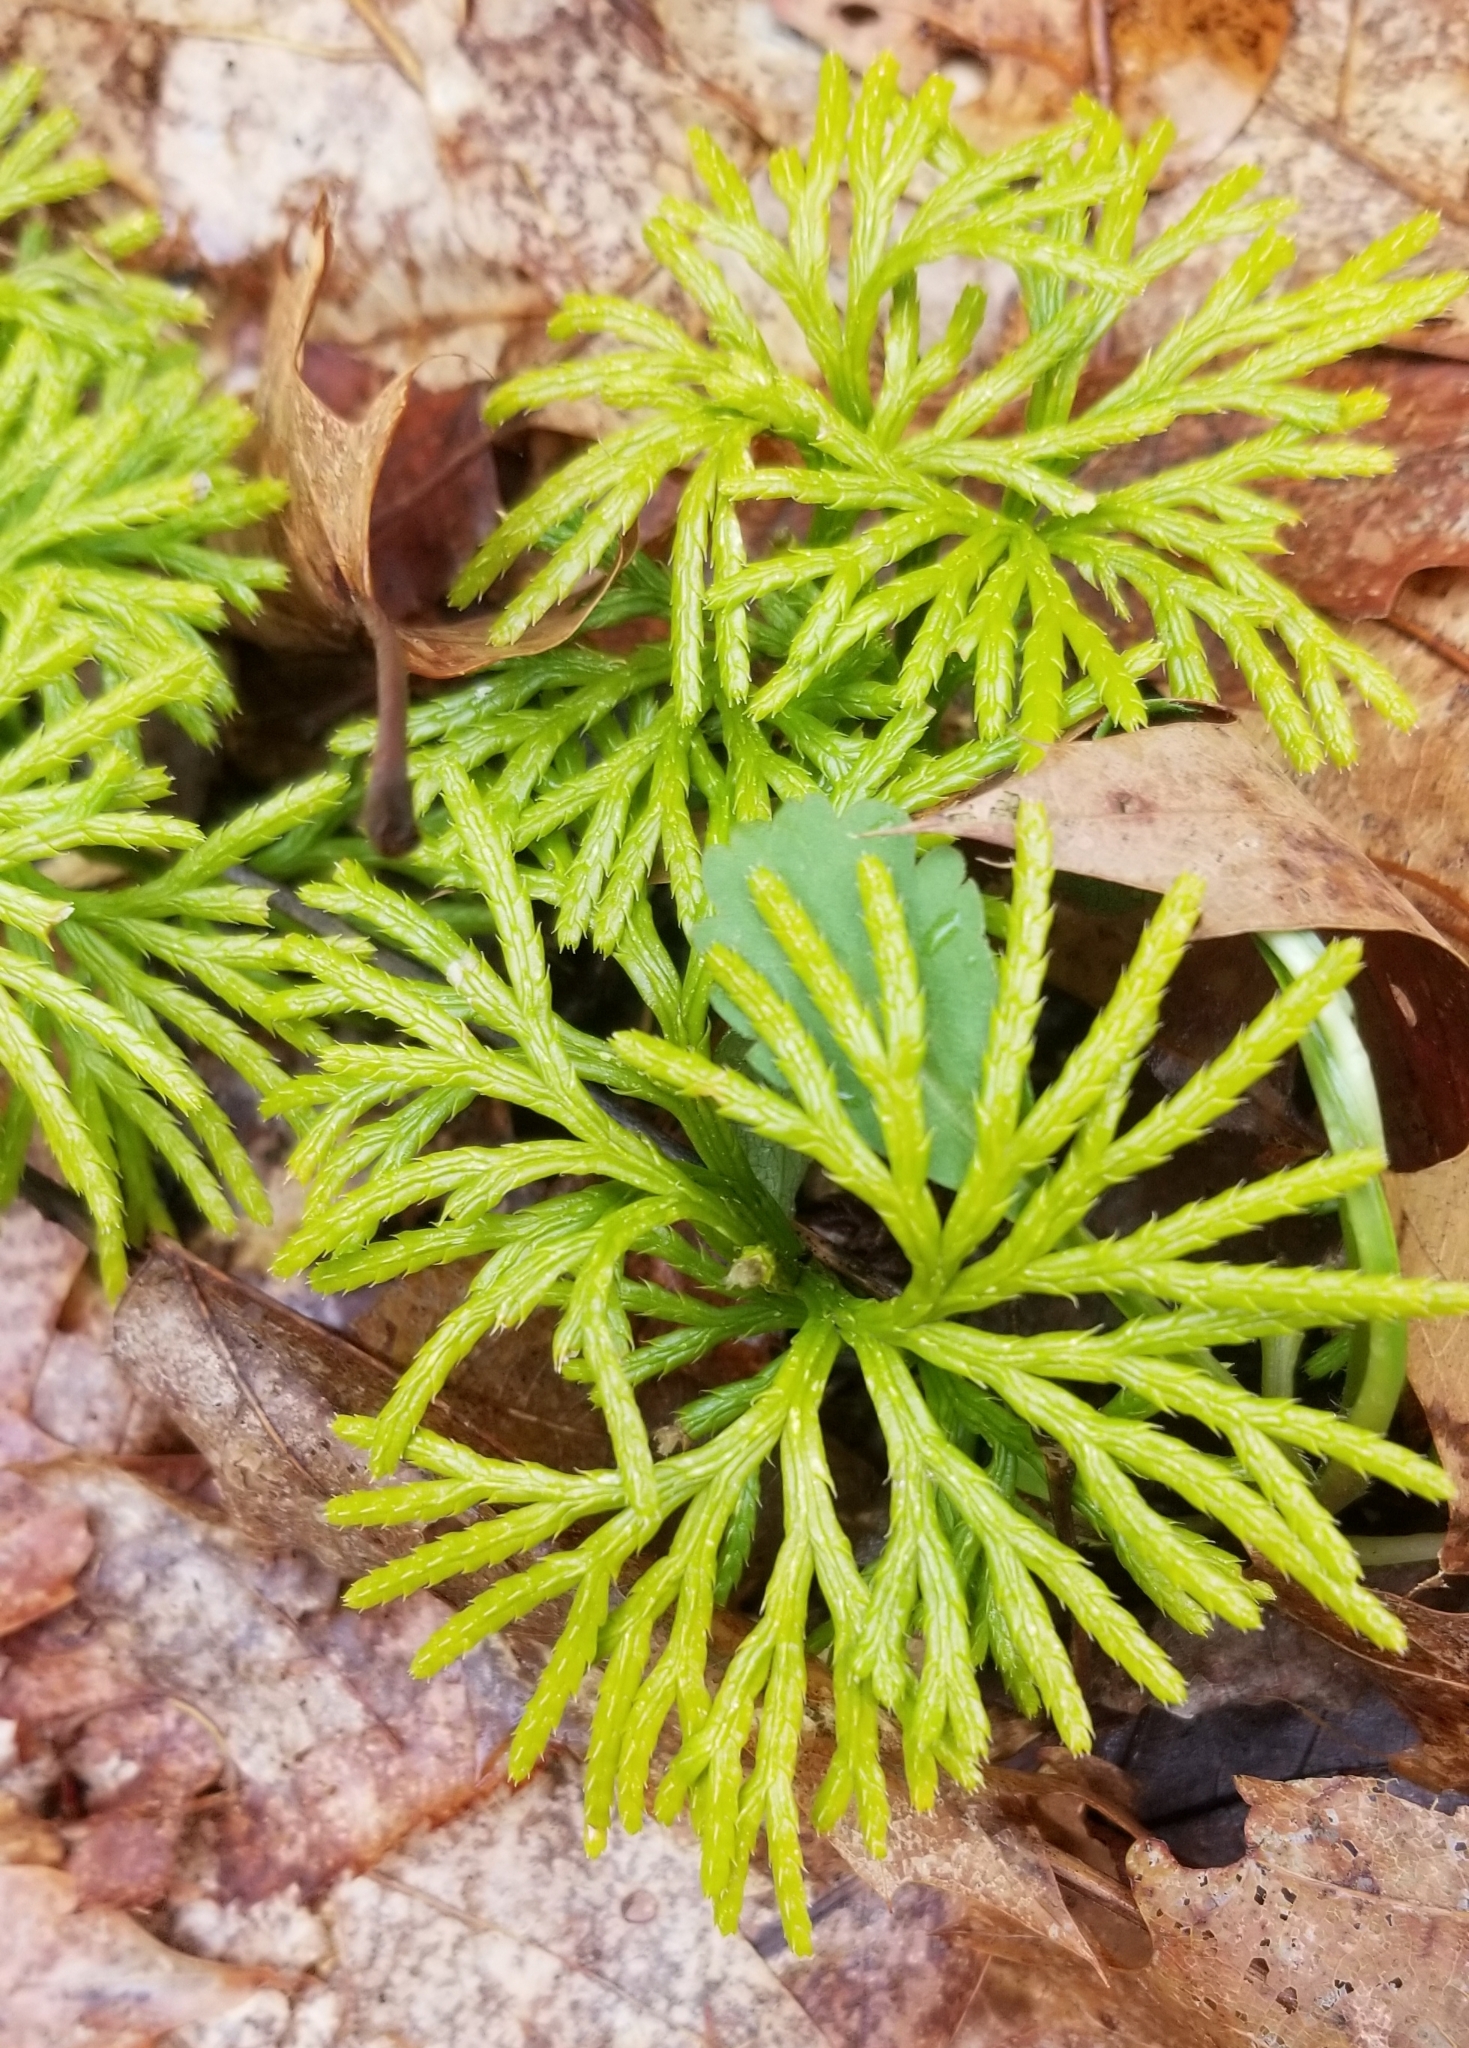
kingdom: Plantae
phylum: Tracheophyta
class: Lycopodiopsida
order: Lycopodiales
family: Lycopodiaceae
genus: Diphasiastrum
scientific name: Diphasiastrum digitatum
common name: Southern running-pine
